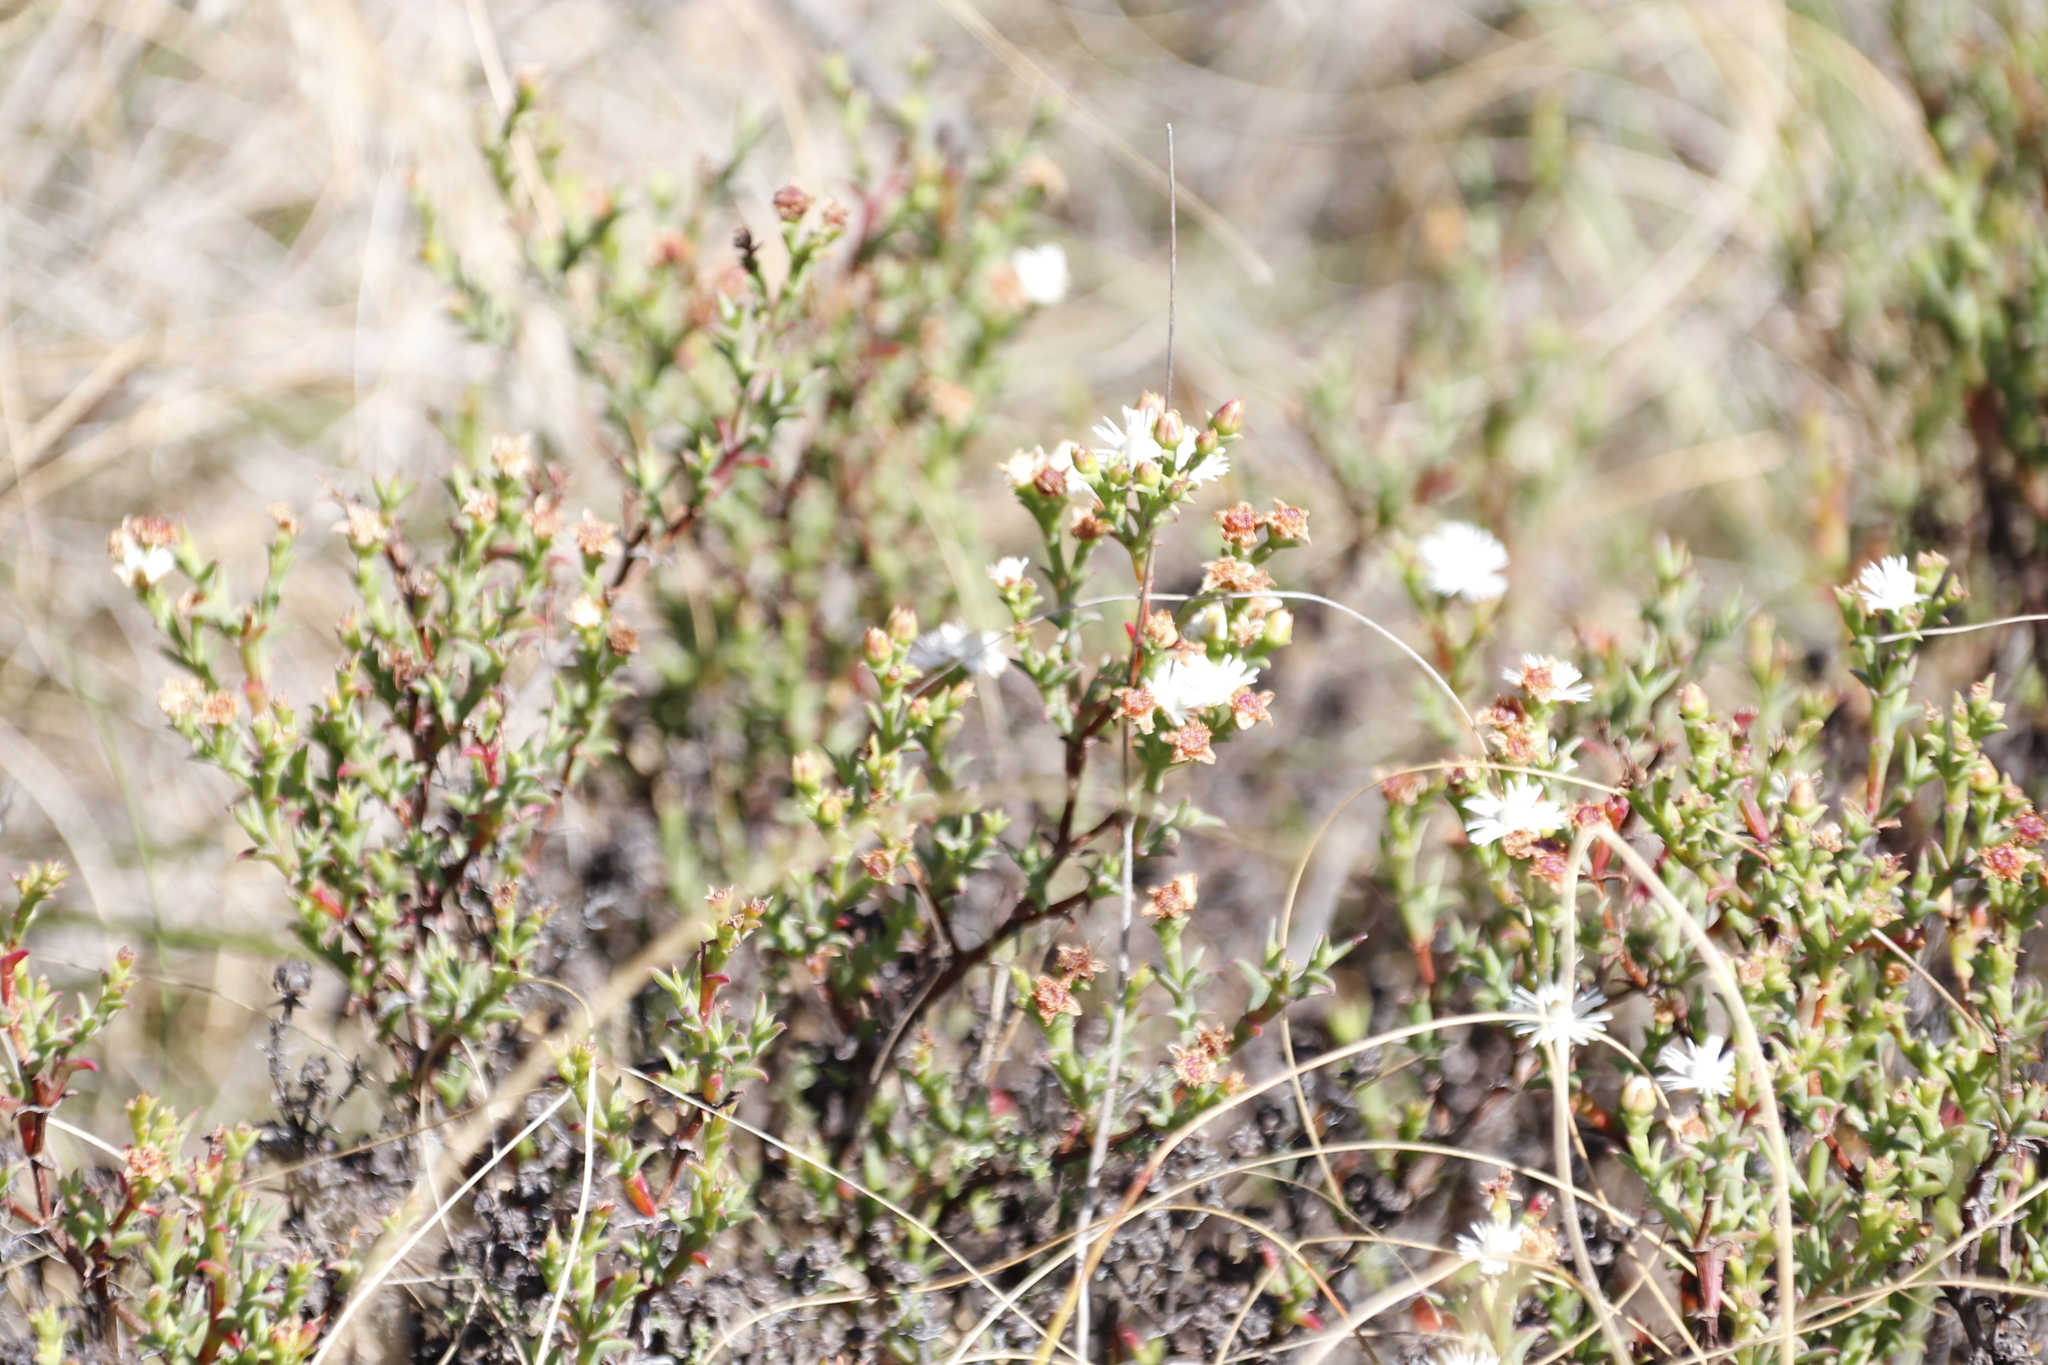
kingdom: Plantae
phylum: Tracheophyta
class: Magnoliopsida
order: Caryophyllales
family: Aizoaceae
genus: Ruschia
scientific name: Ruschia tenella
